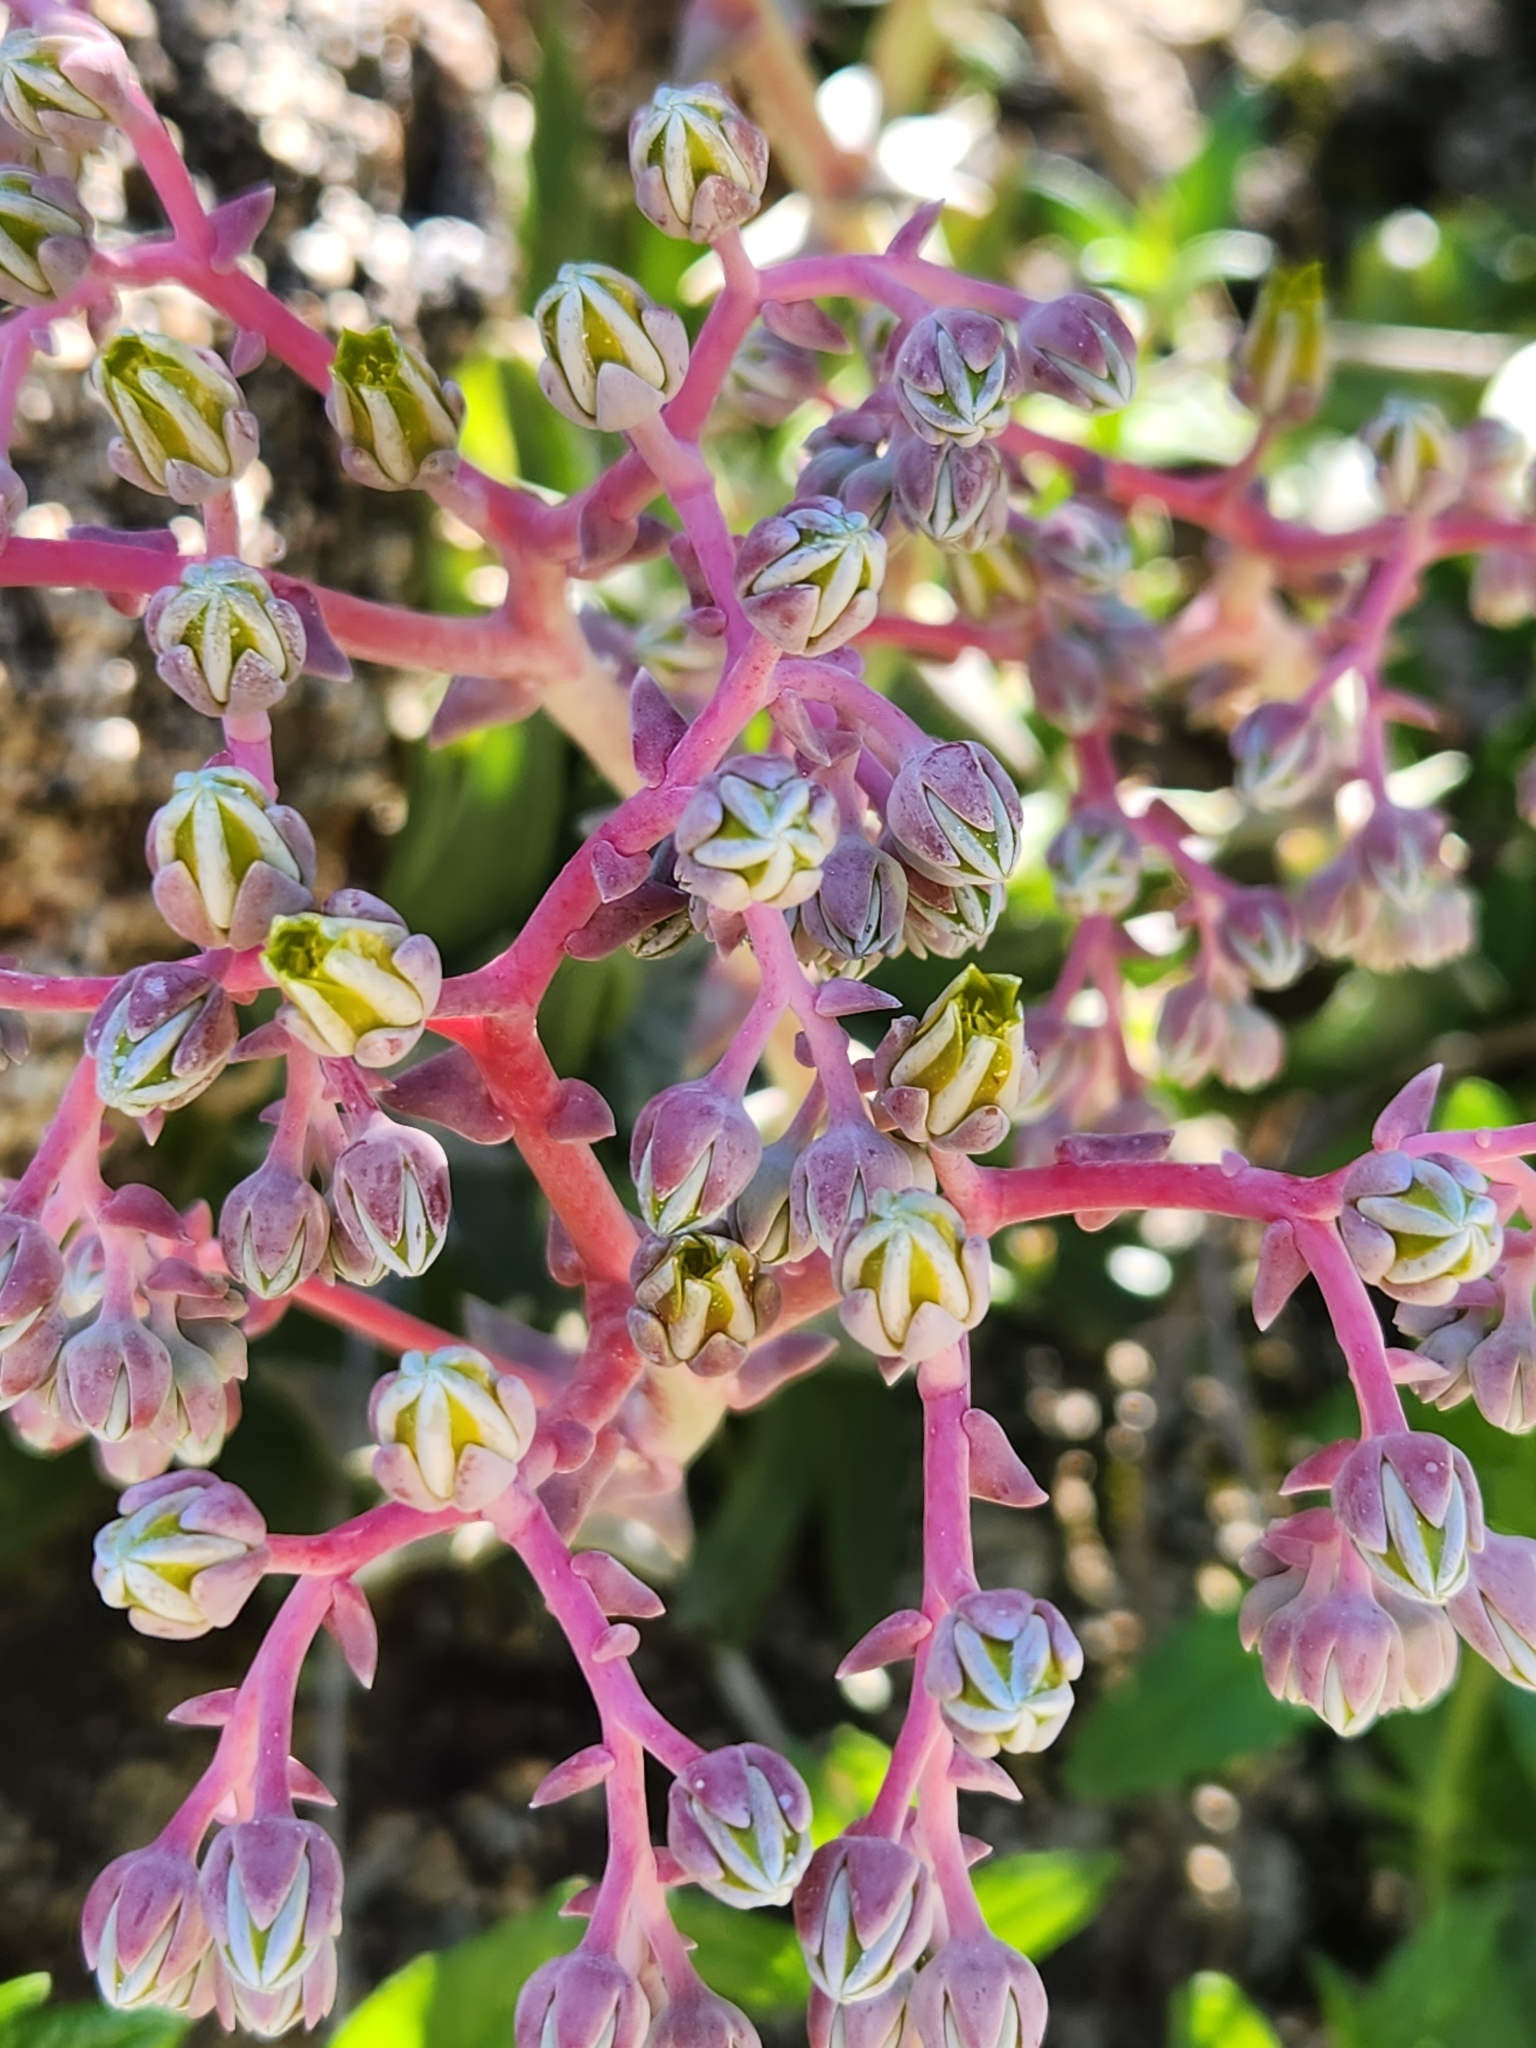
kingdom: Plantae
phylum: Tracheophyta
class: Magnoliopsida
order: Saxifragales
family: Crassulaceae
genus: Dudleya
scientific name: Dudleya saxosa
